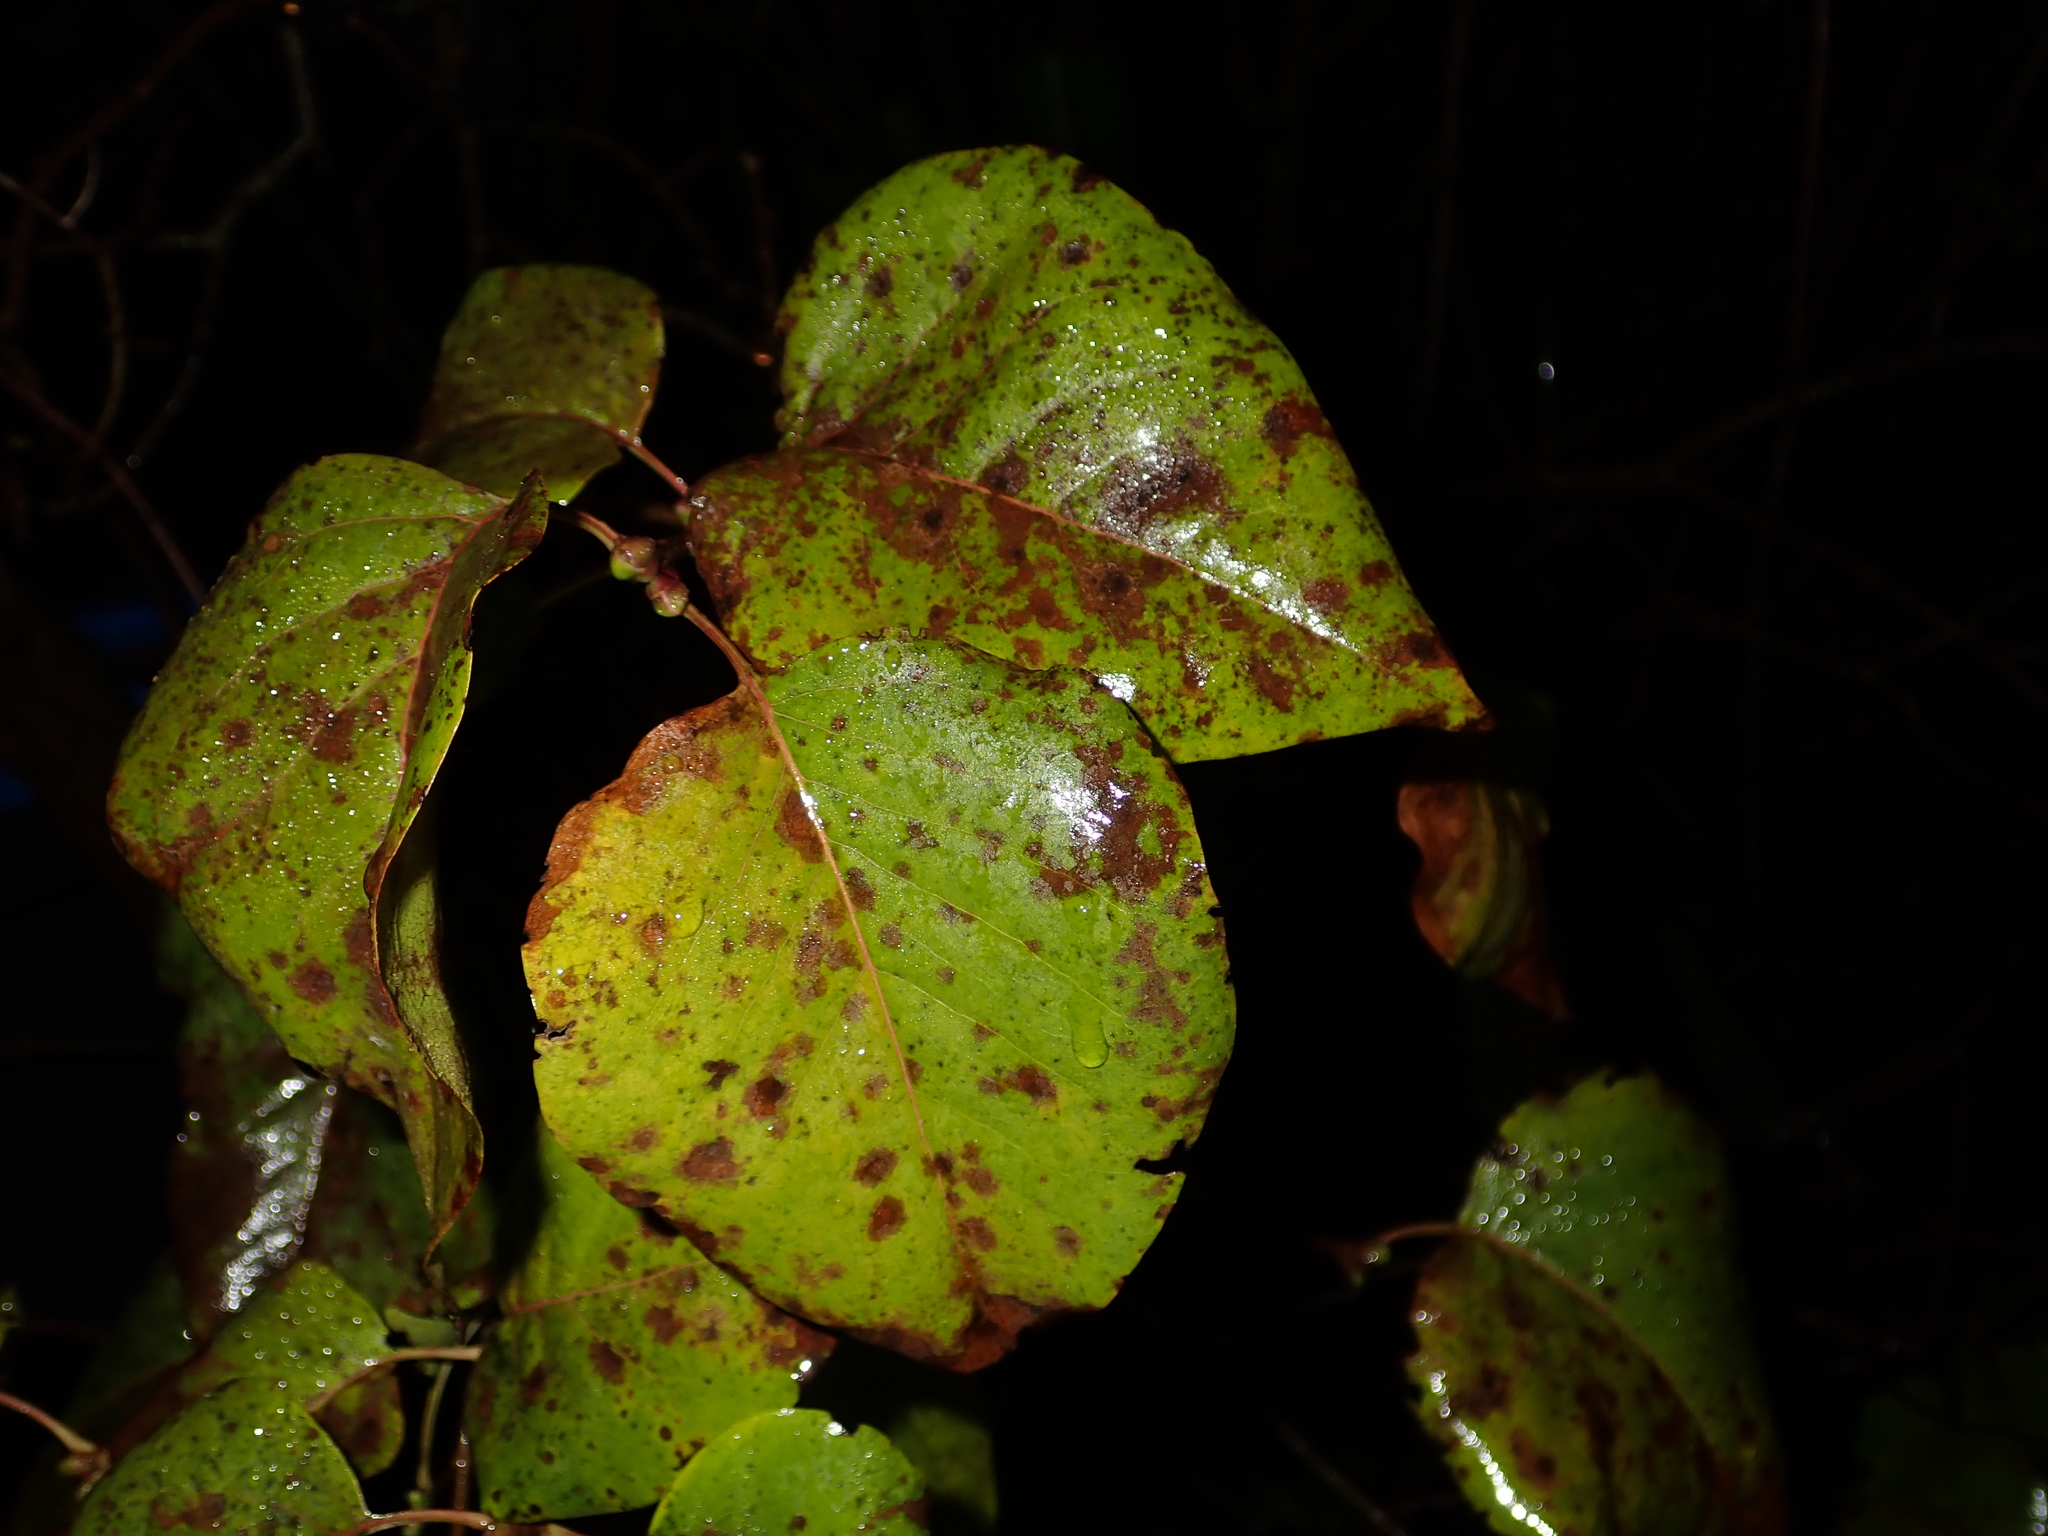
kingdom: Plantae
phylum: Tracheophyta
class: Magnoliopsida
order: Lamiales
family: Oleaceae
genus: Syringa
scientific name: Syringa vulgaris
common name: Common lilac
